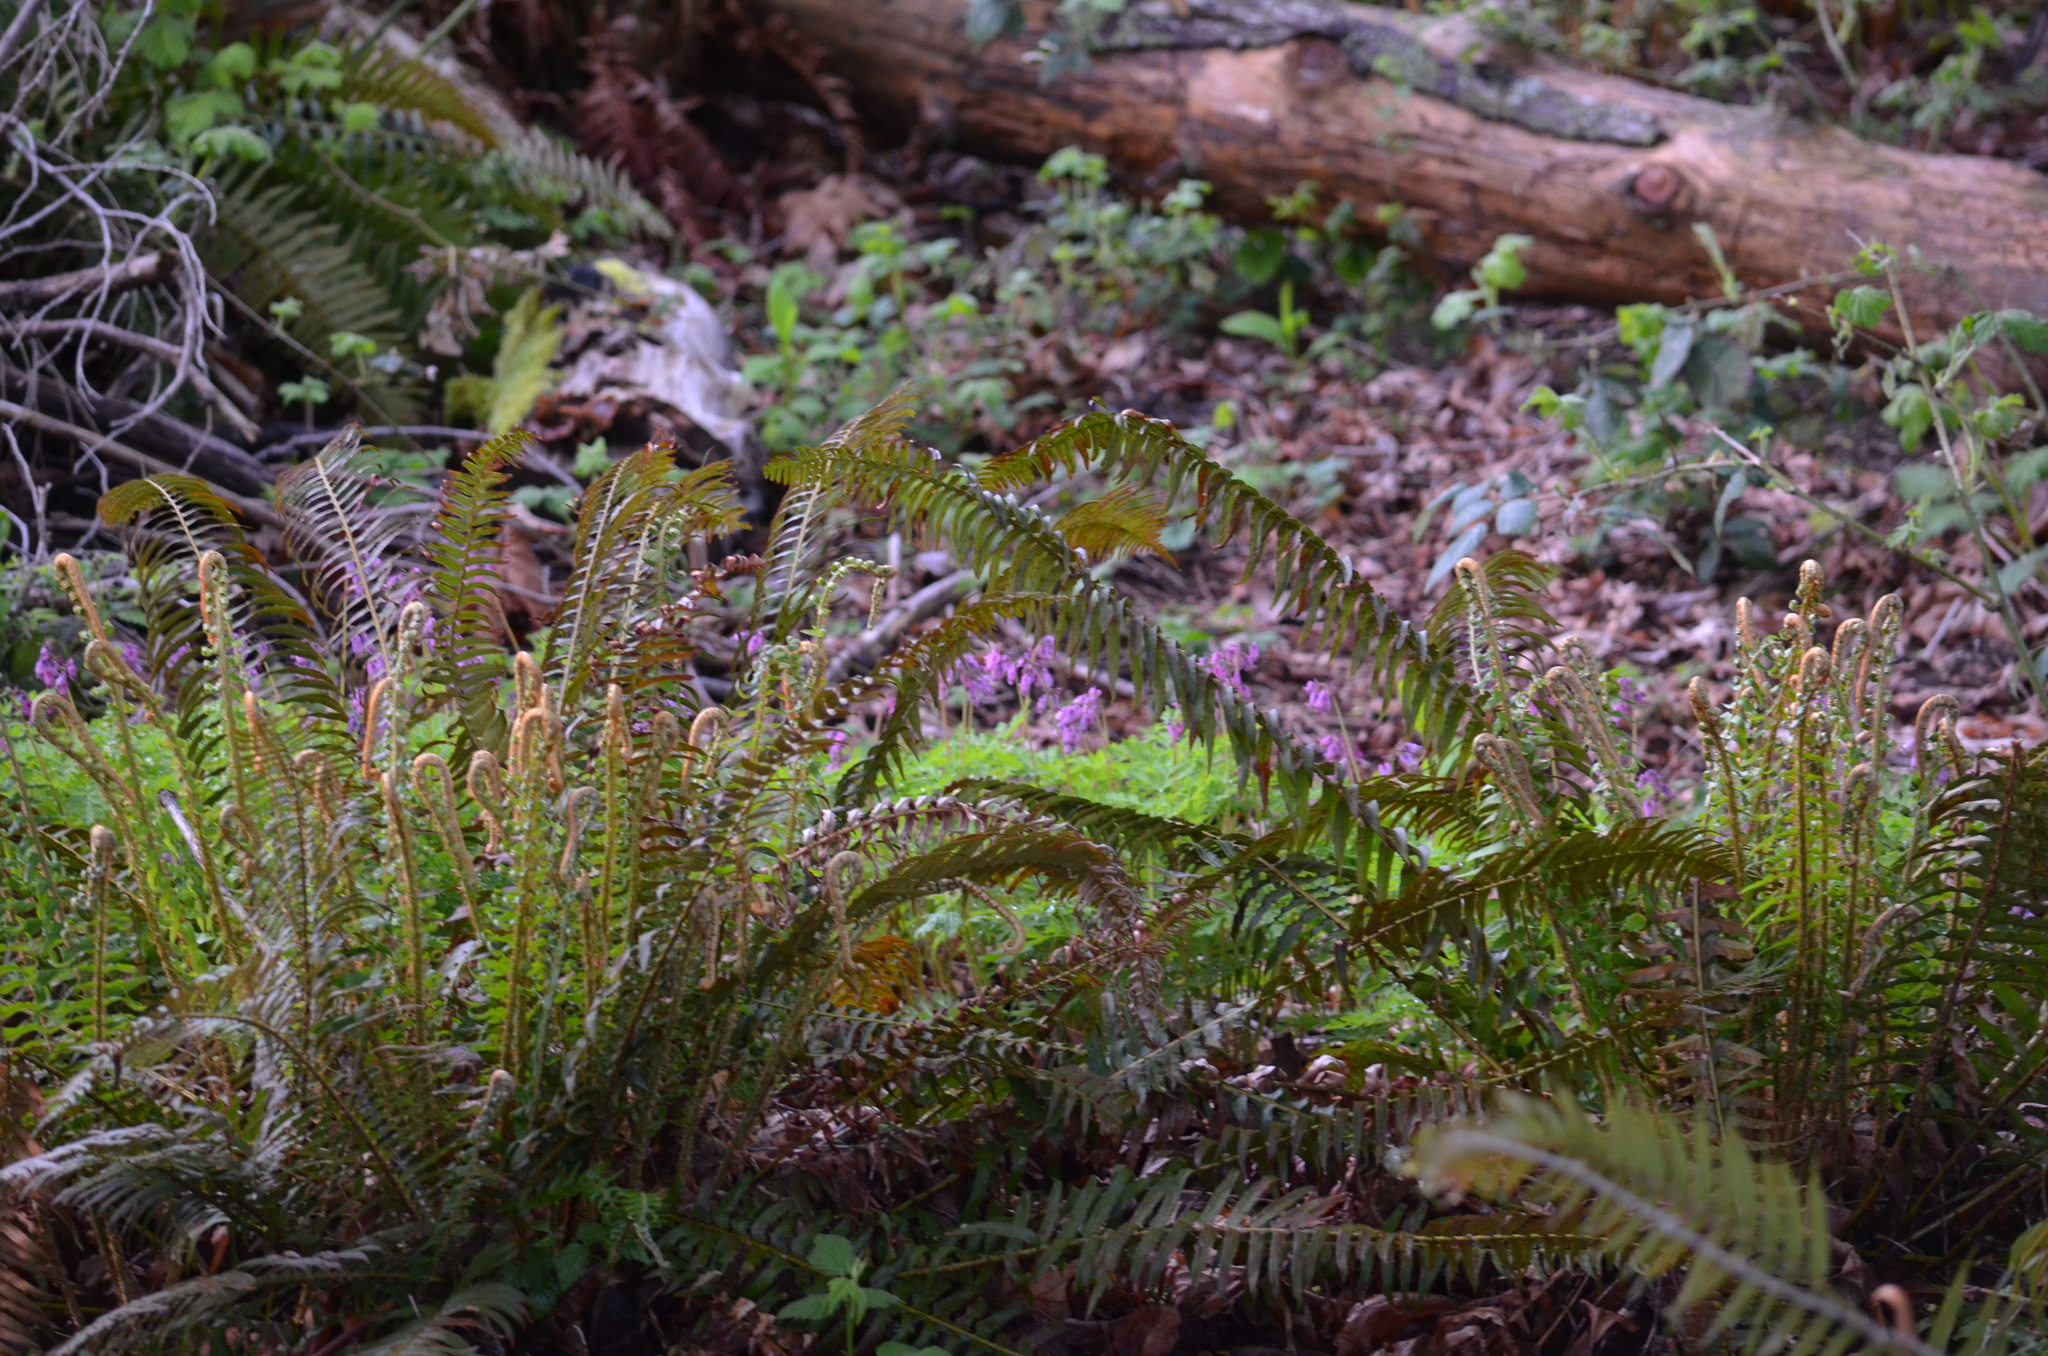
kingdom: Plantae
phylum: Tracheophyta
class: Magnoliopsida
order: Ranunculales
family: Papaveraceae
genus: Dicentra
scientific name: Dicentra formosa
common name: Bleeding-heart
